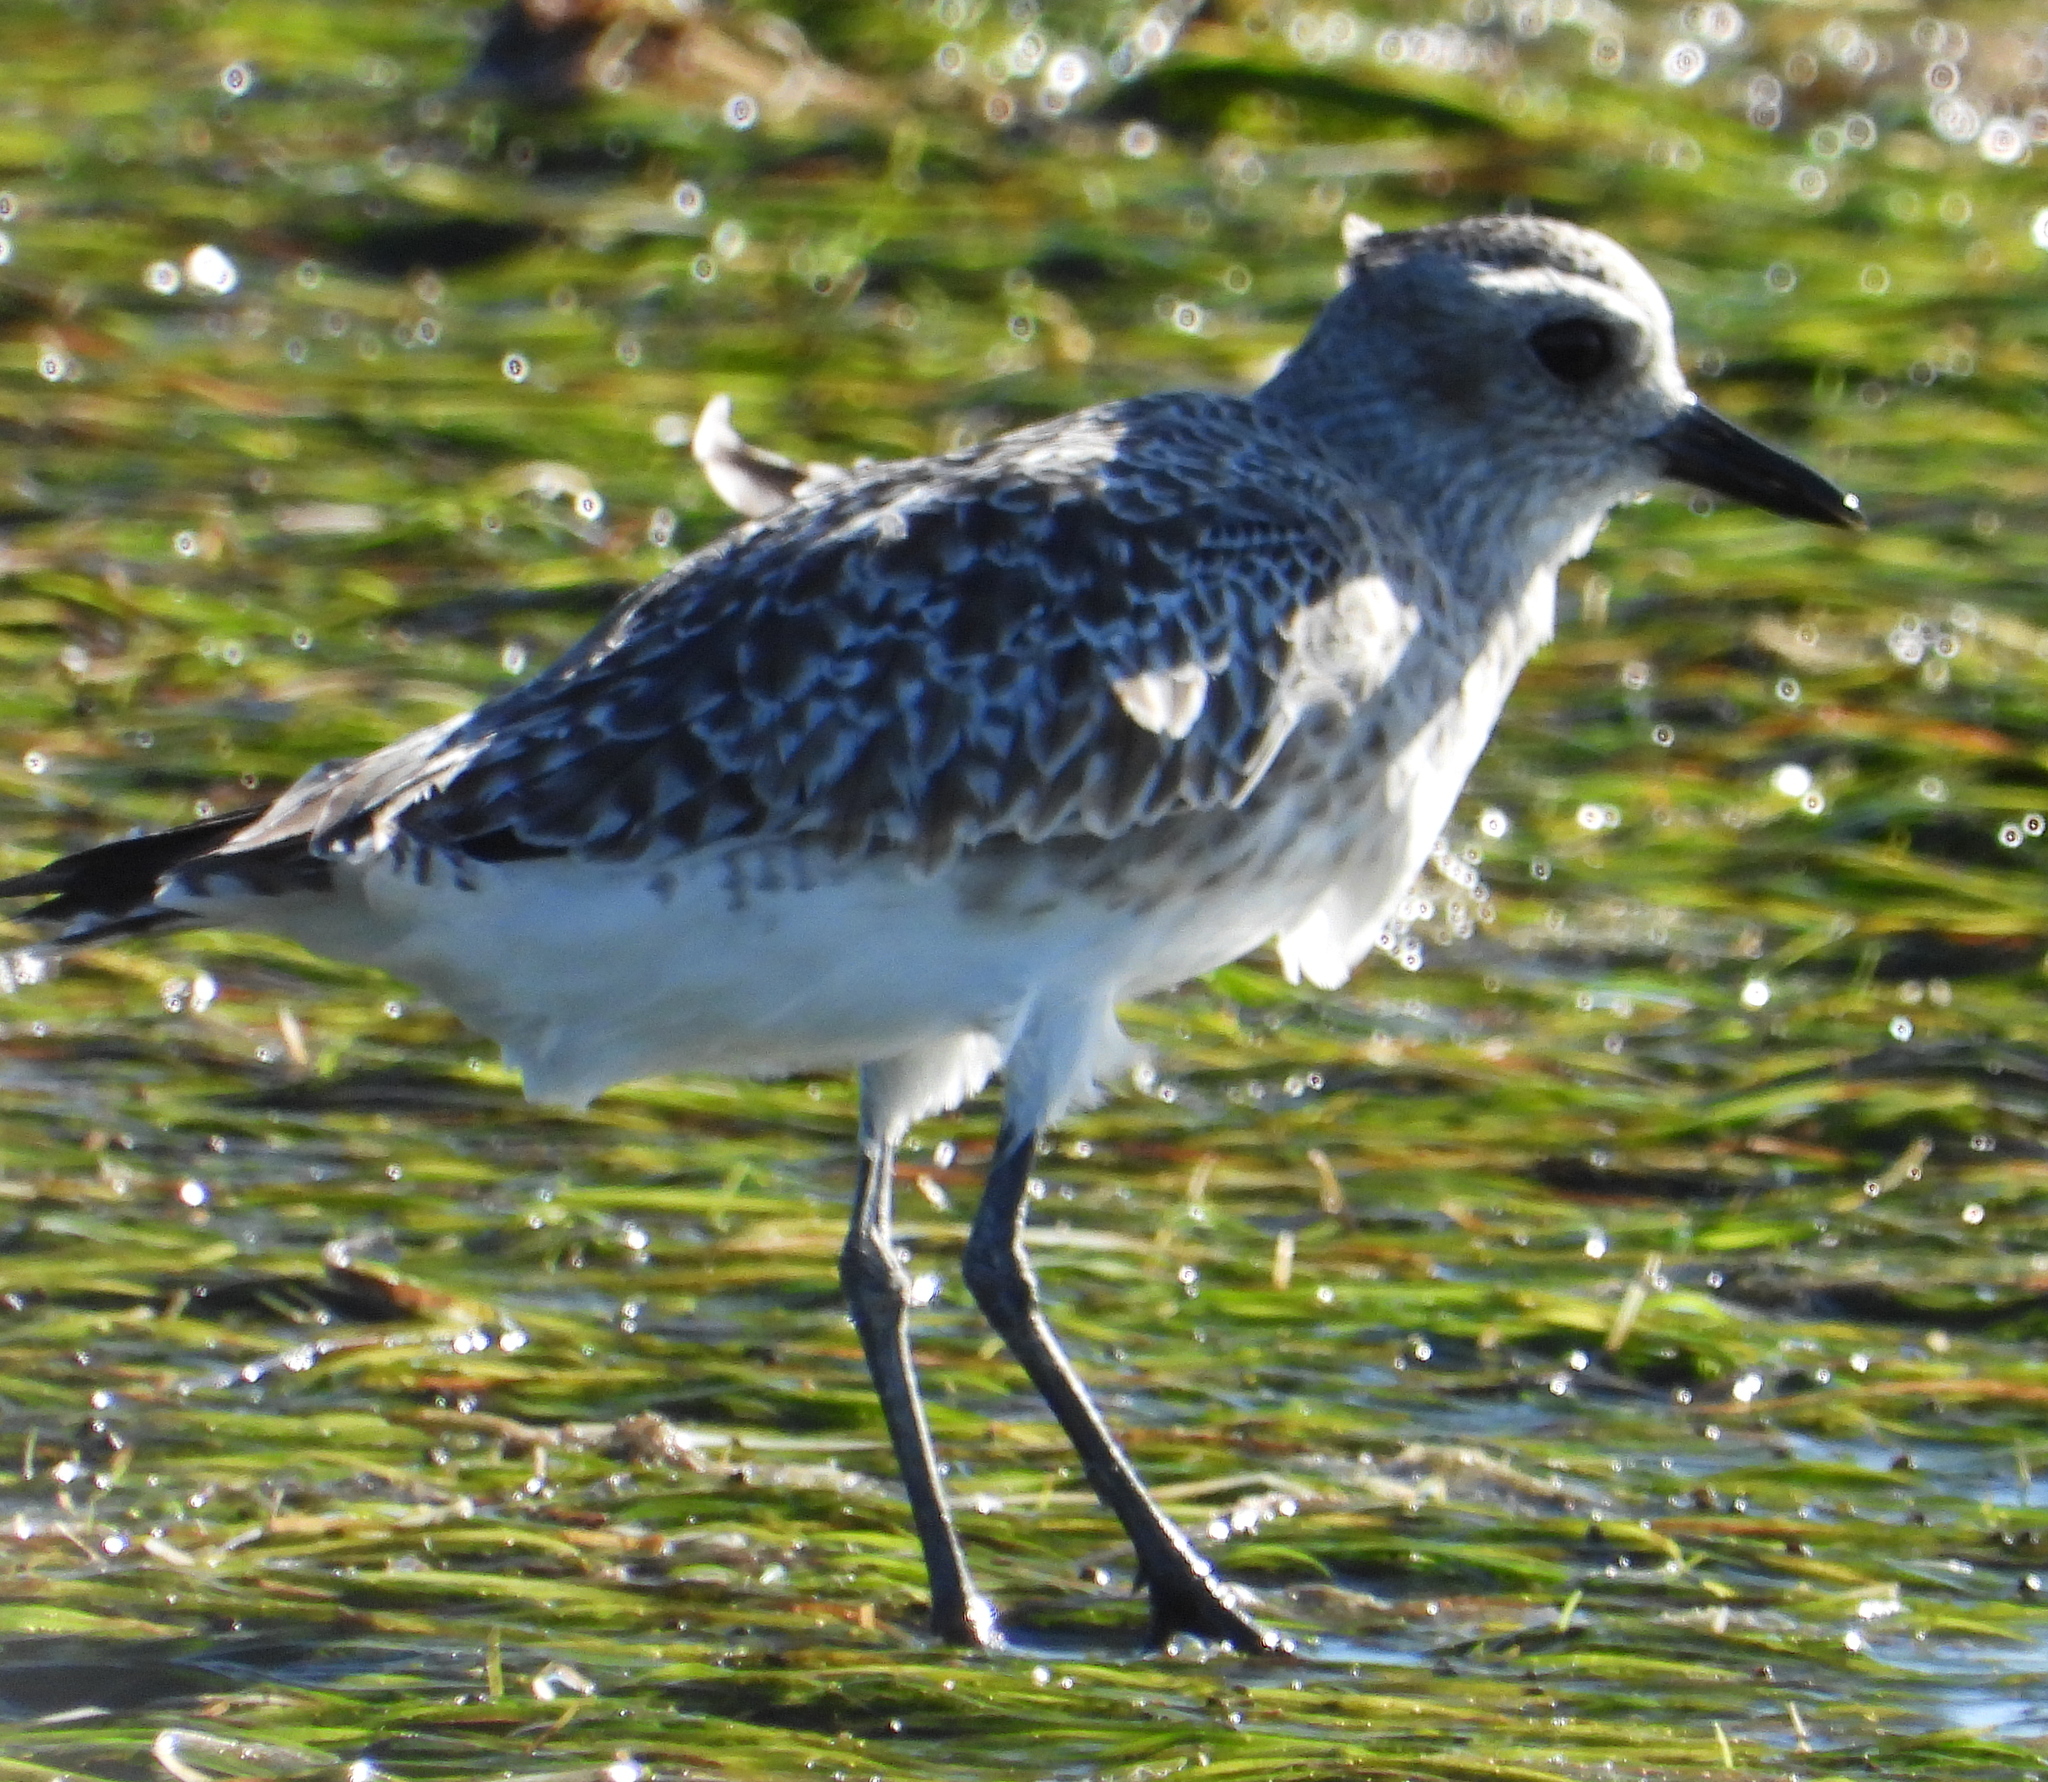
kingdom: Animalia
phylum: Chordata
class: Aves
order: Charadriiformes
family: Charadriidae
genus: Pluvialis
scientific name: Pluvialis squatarola
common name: Grey plover
